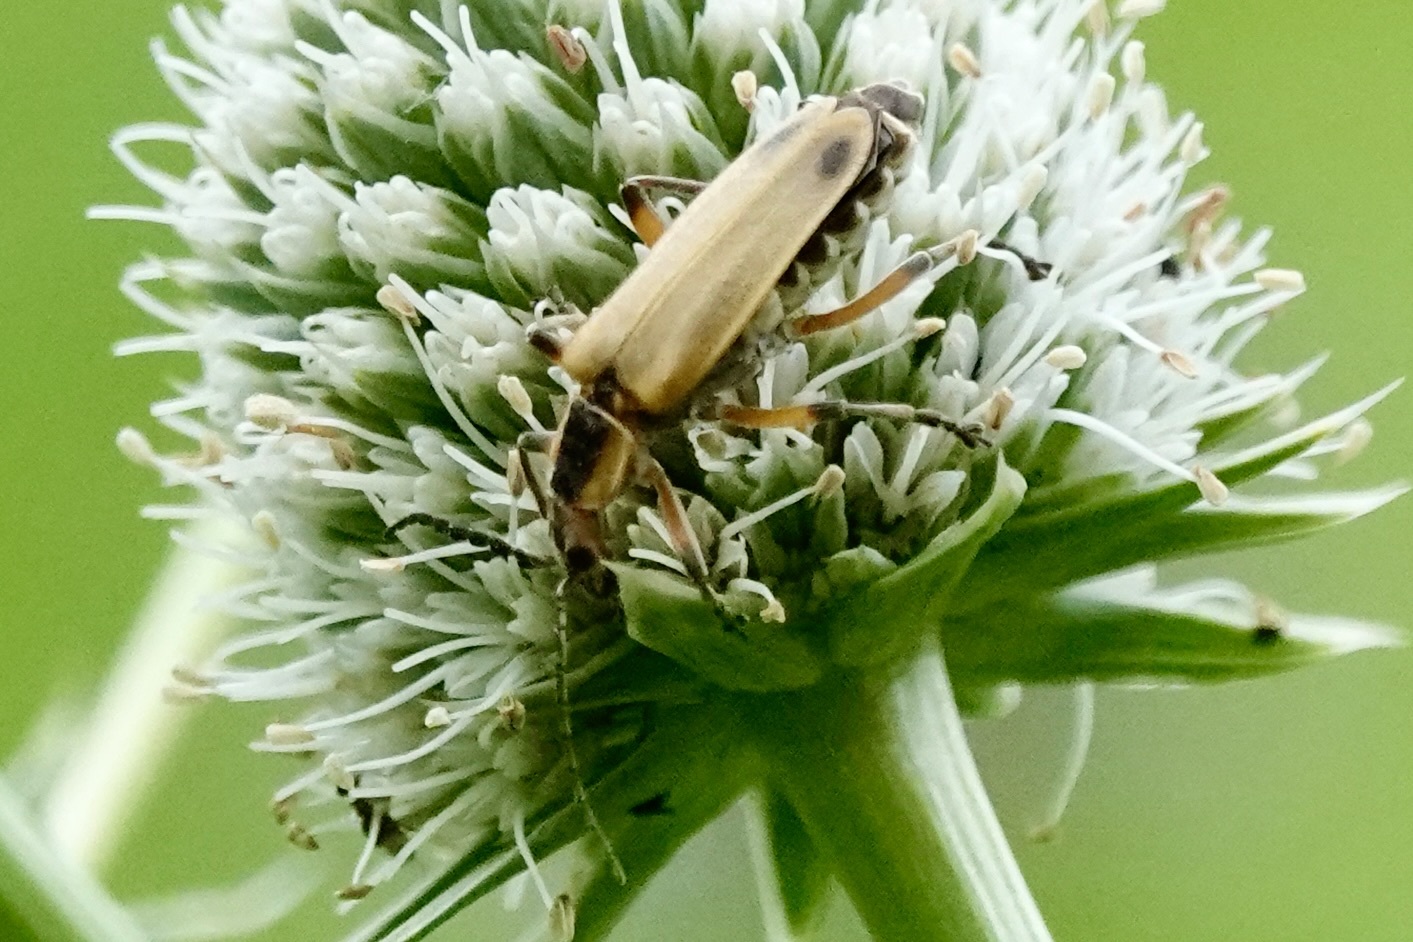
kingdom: Animalia
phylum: Arthropoda
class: Insecta
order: Coleoptera
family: Cantharidae
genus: Chauliognathus
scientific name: Chauliognathus marginatus
